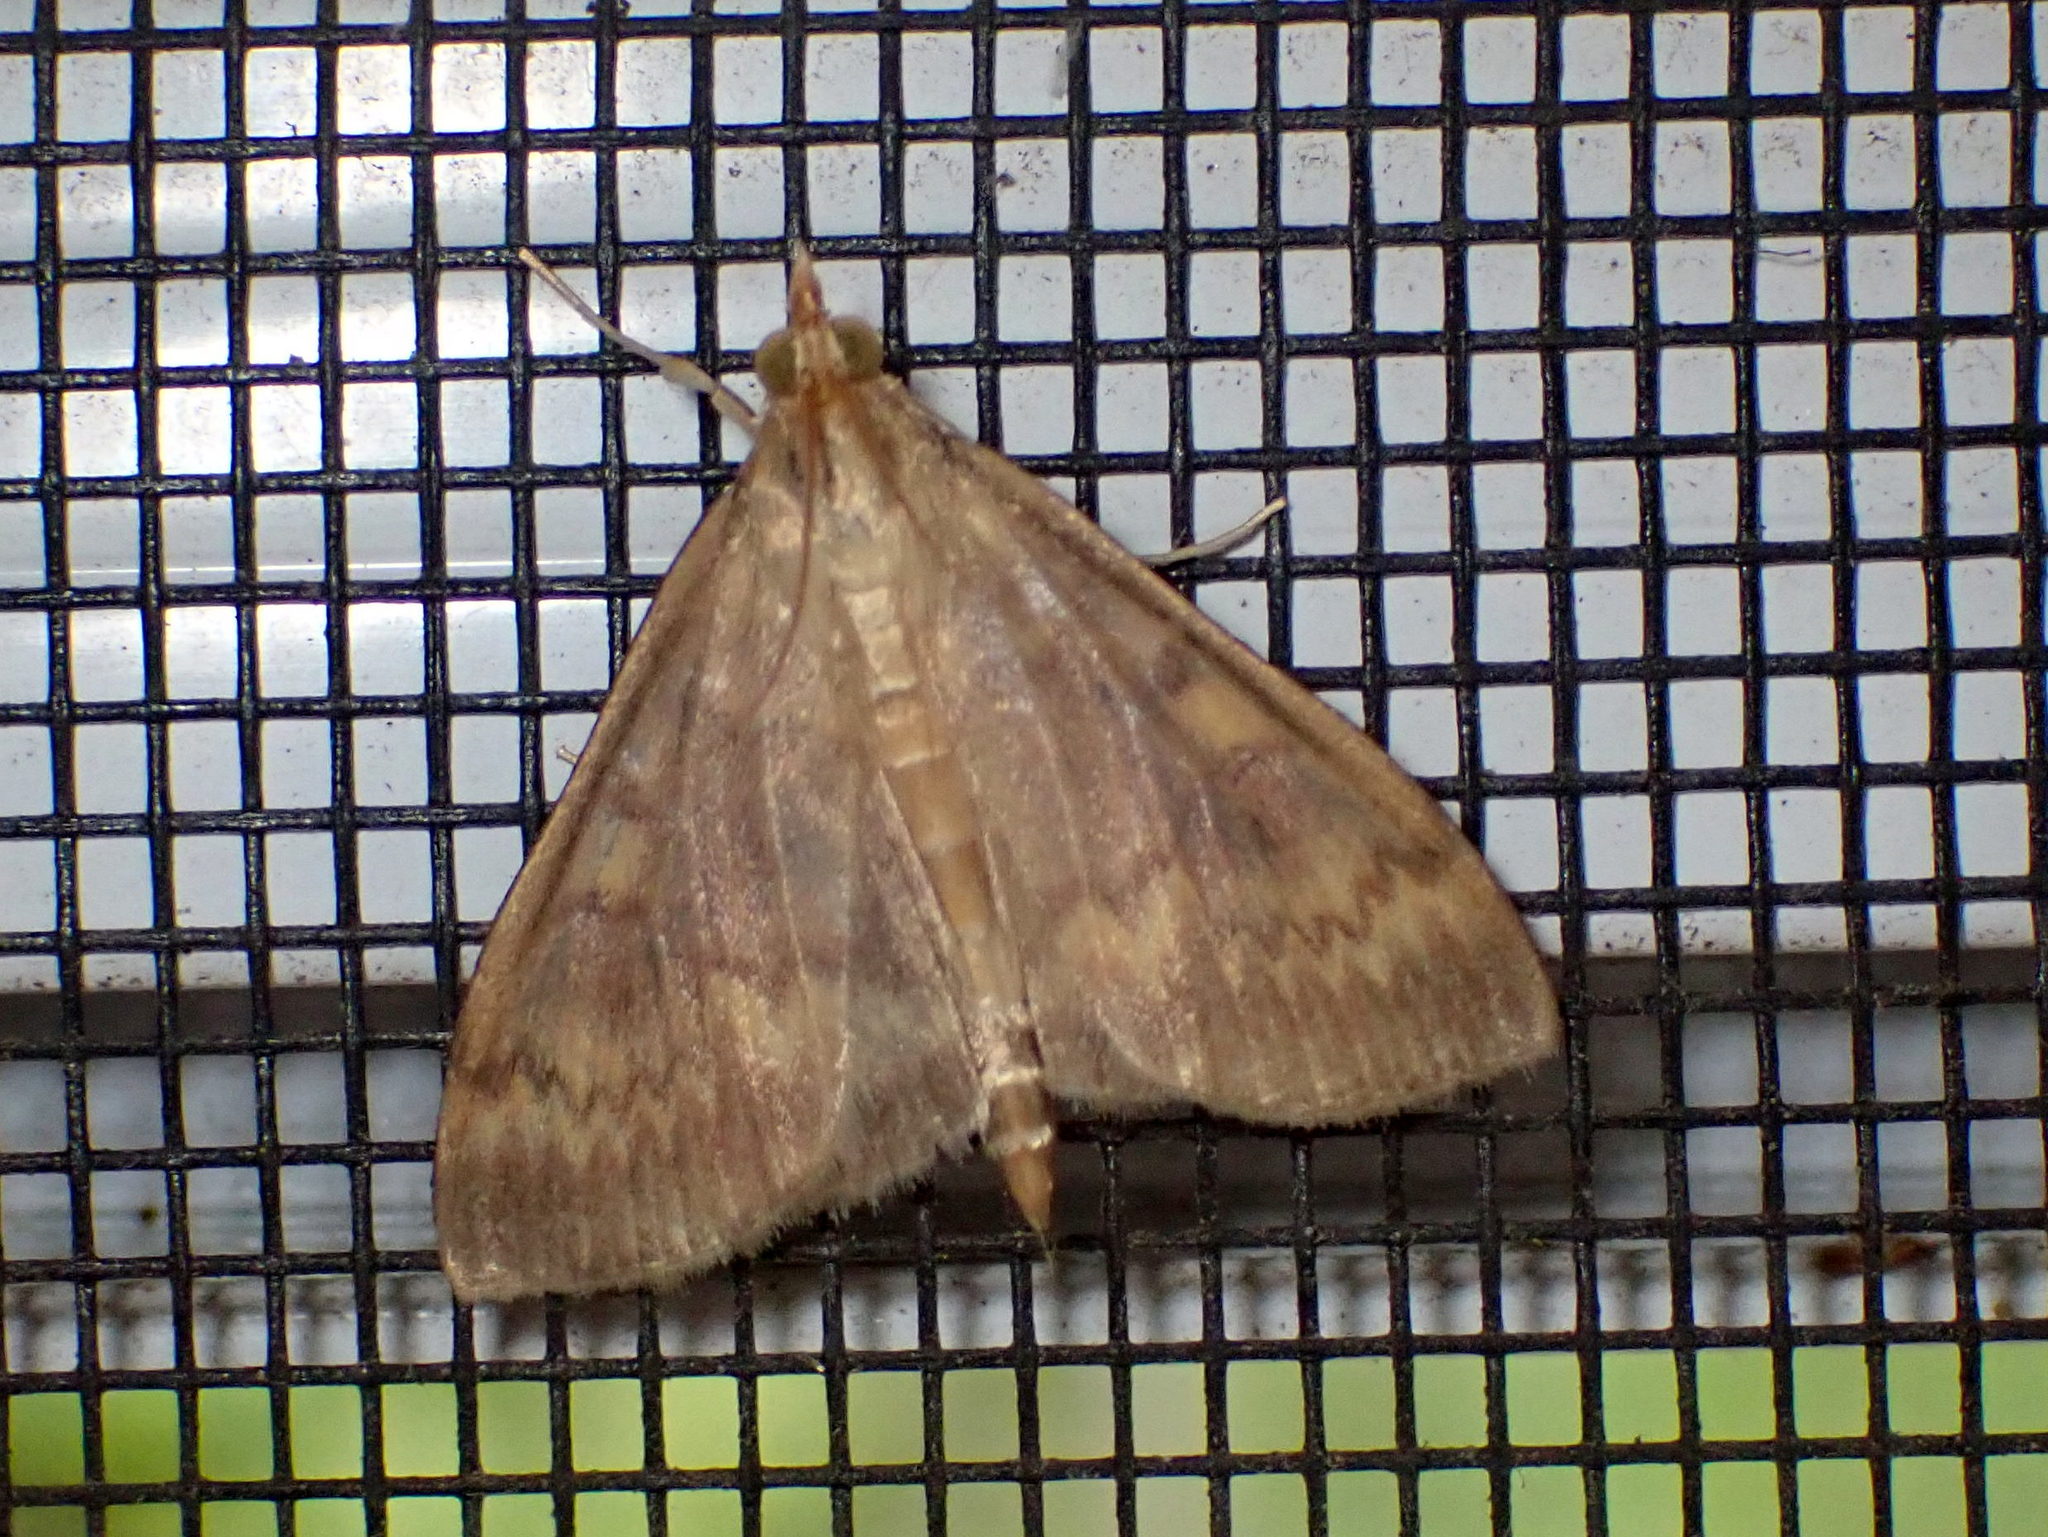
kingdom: Animalia
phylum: Arthropoda
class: Insecta
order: Lepidoptera
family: Crambidae
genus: Ostrinia
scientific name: Ostrinia nubilalis
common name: European corn borer
